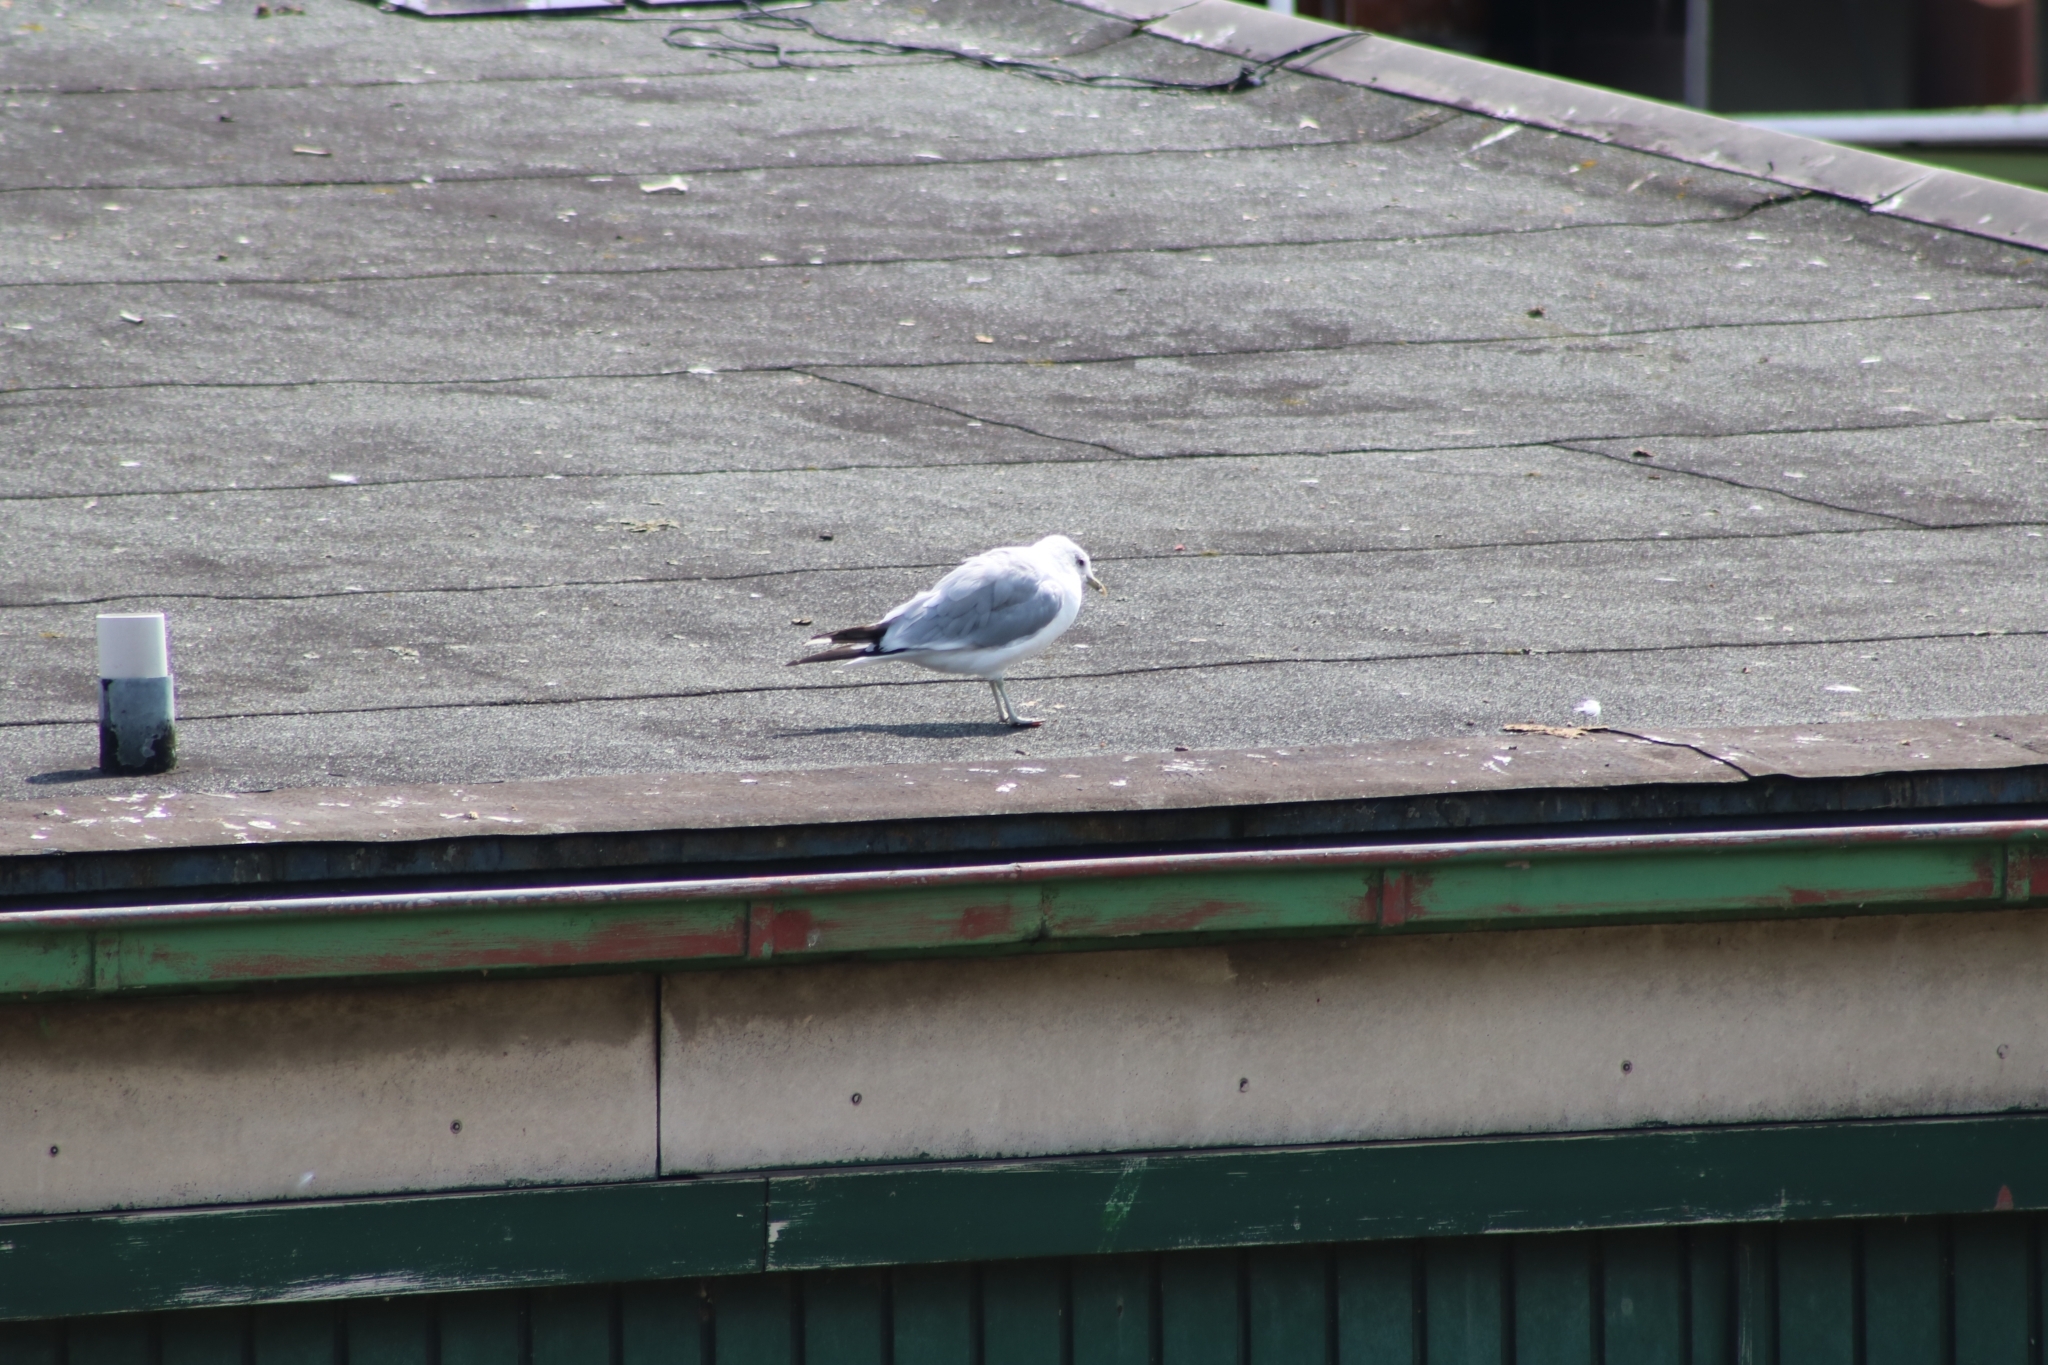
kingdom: Animalia
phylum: Chordata
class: Aves
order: Charadriiformes
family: Laridae
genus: Larus
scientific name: Larus canus
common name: Mew gull
